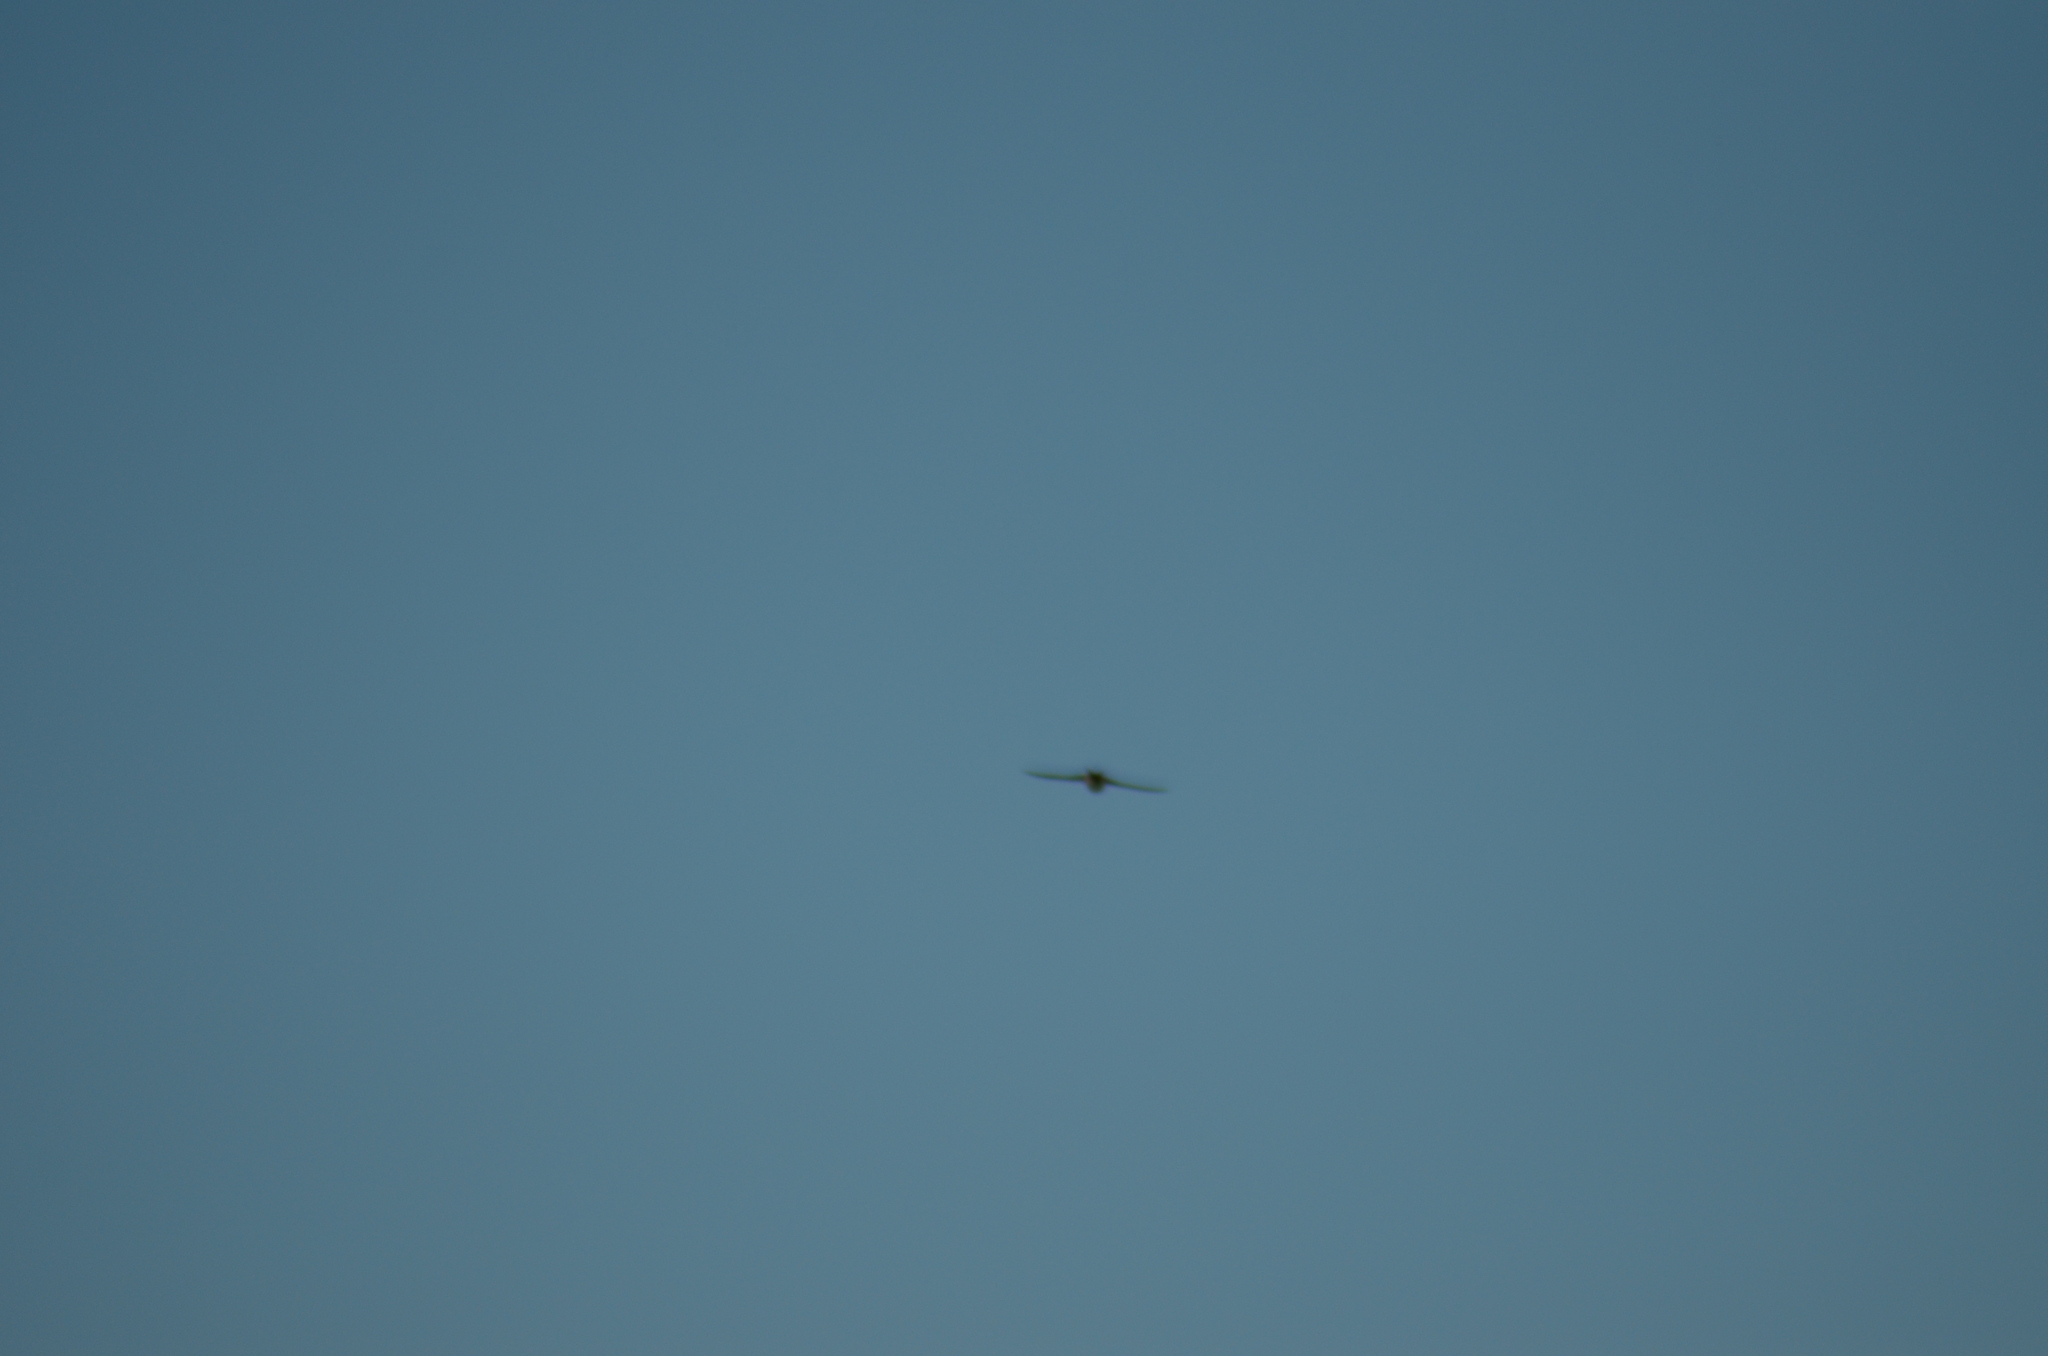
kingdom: Animalia
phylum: Chordata
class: Aves
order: Passeriformes
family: Hirundinidae
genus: Cecropis
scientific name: Cecropis daurica
